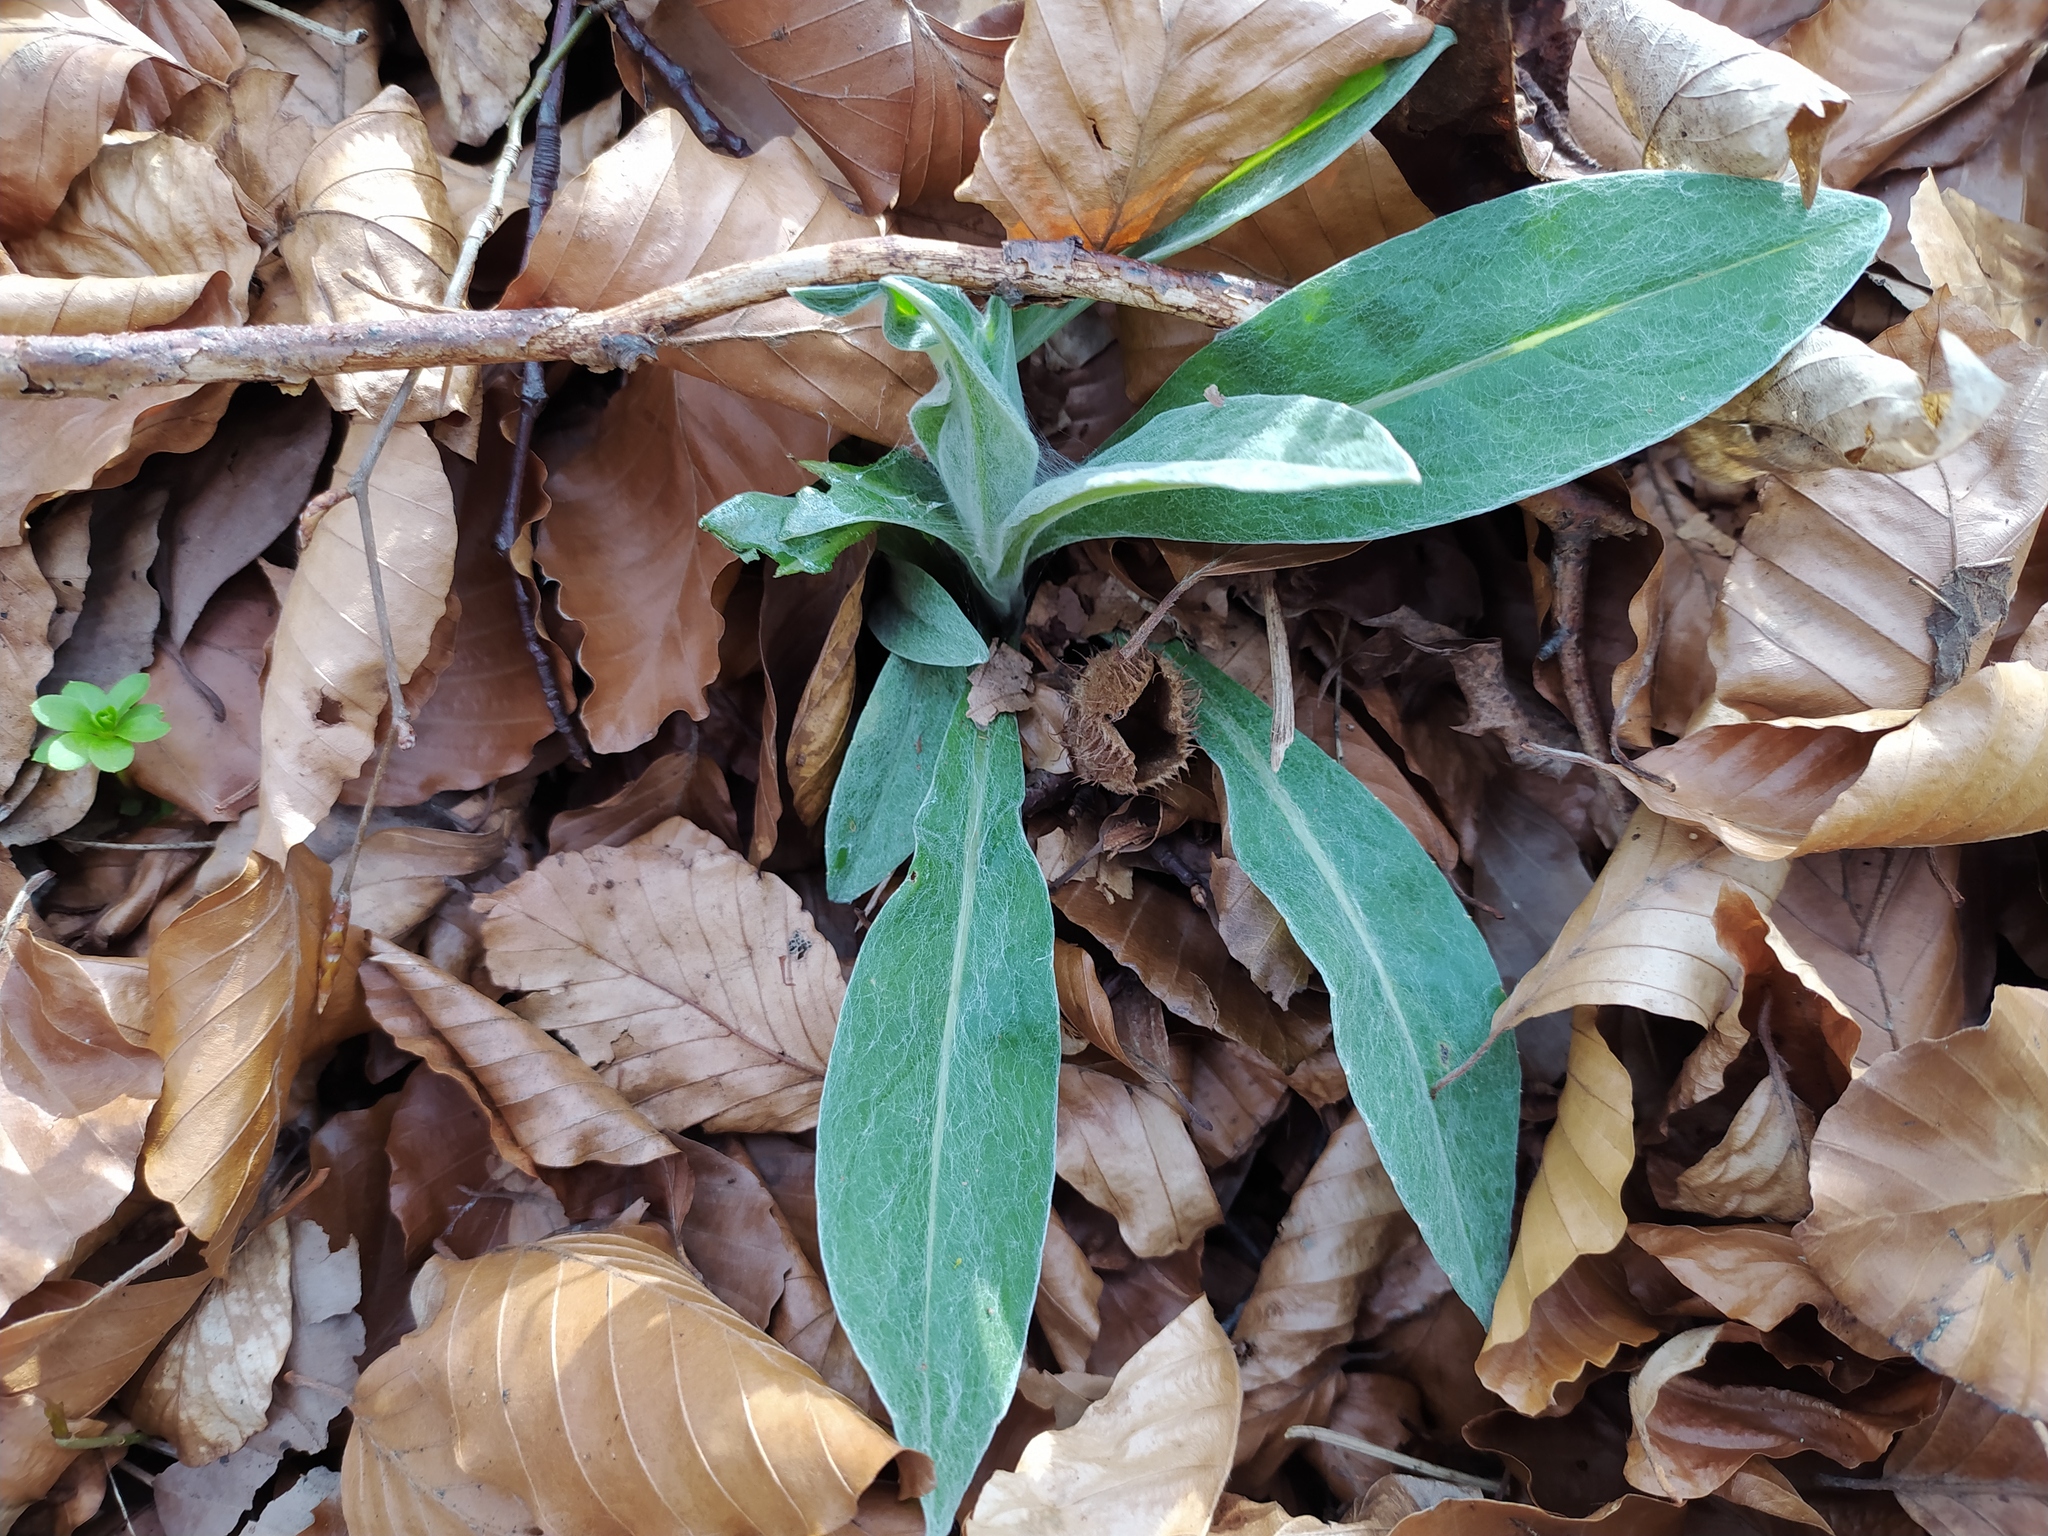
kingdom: Plantae
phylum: Tracheophyta
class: Magnoliopsida
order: Asterales
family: Asteraceae
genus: Centaurea
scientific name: Centaurea montana
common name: Perennial cornflower
